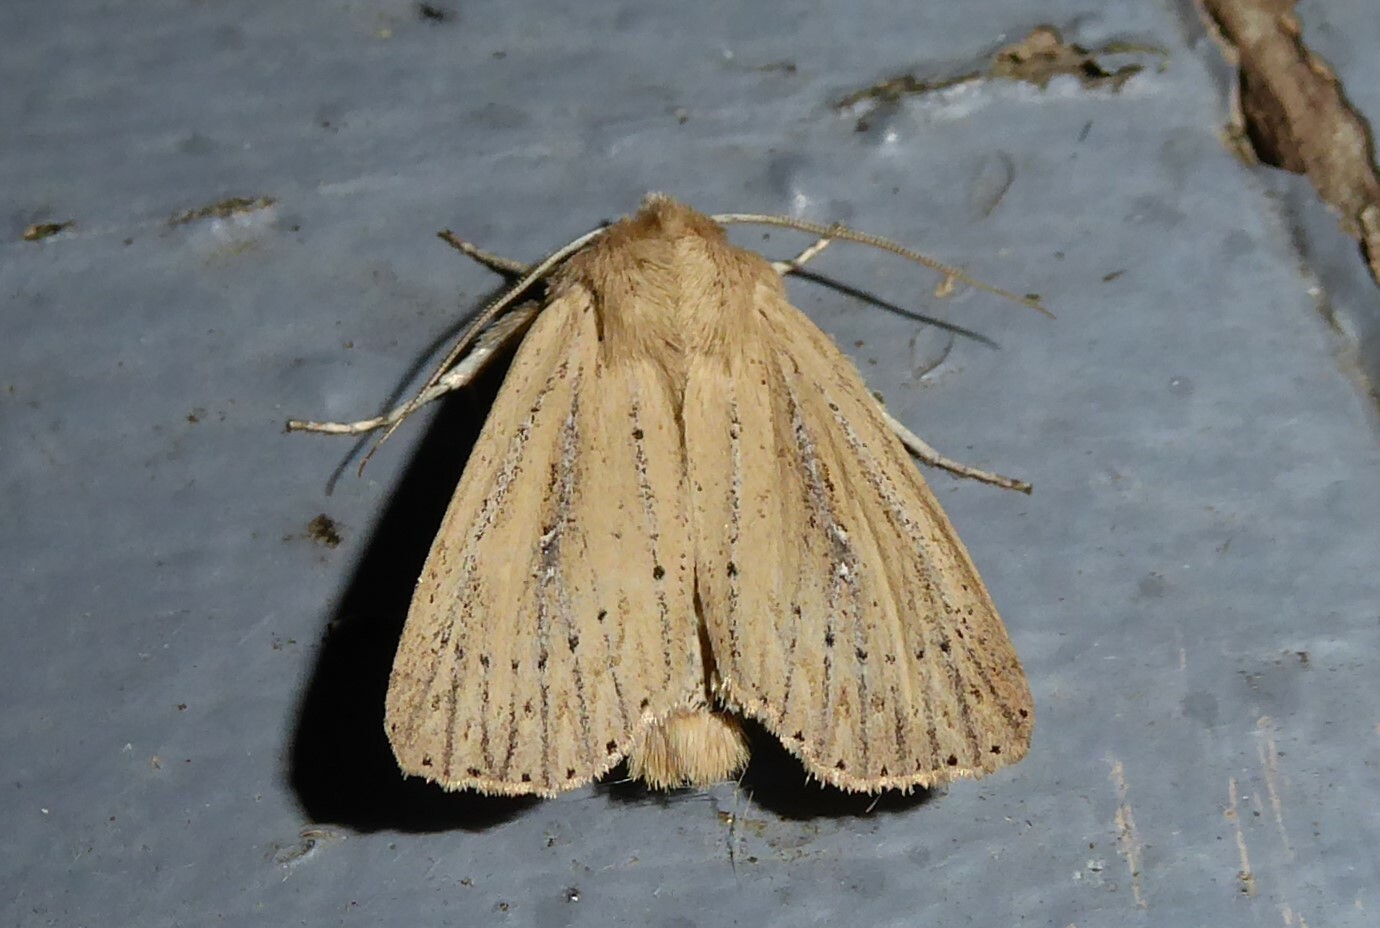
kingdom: Animalia
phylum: Arthropoda
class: Insecta
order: Lepidoptera
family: Noctuidae
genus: Ichneutica
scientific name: Ichneutica
